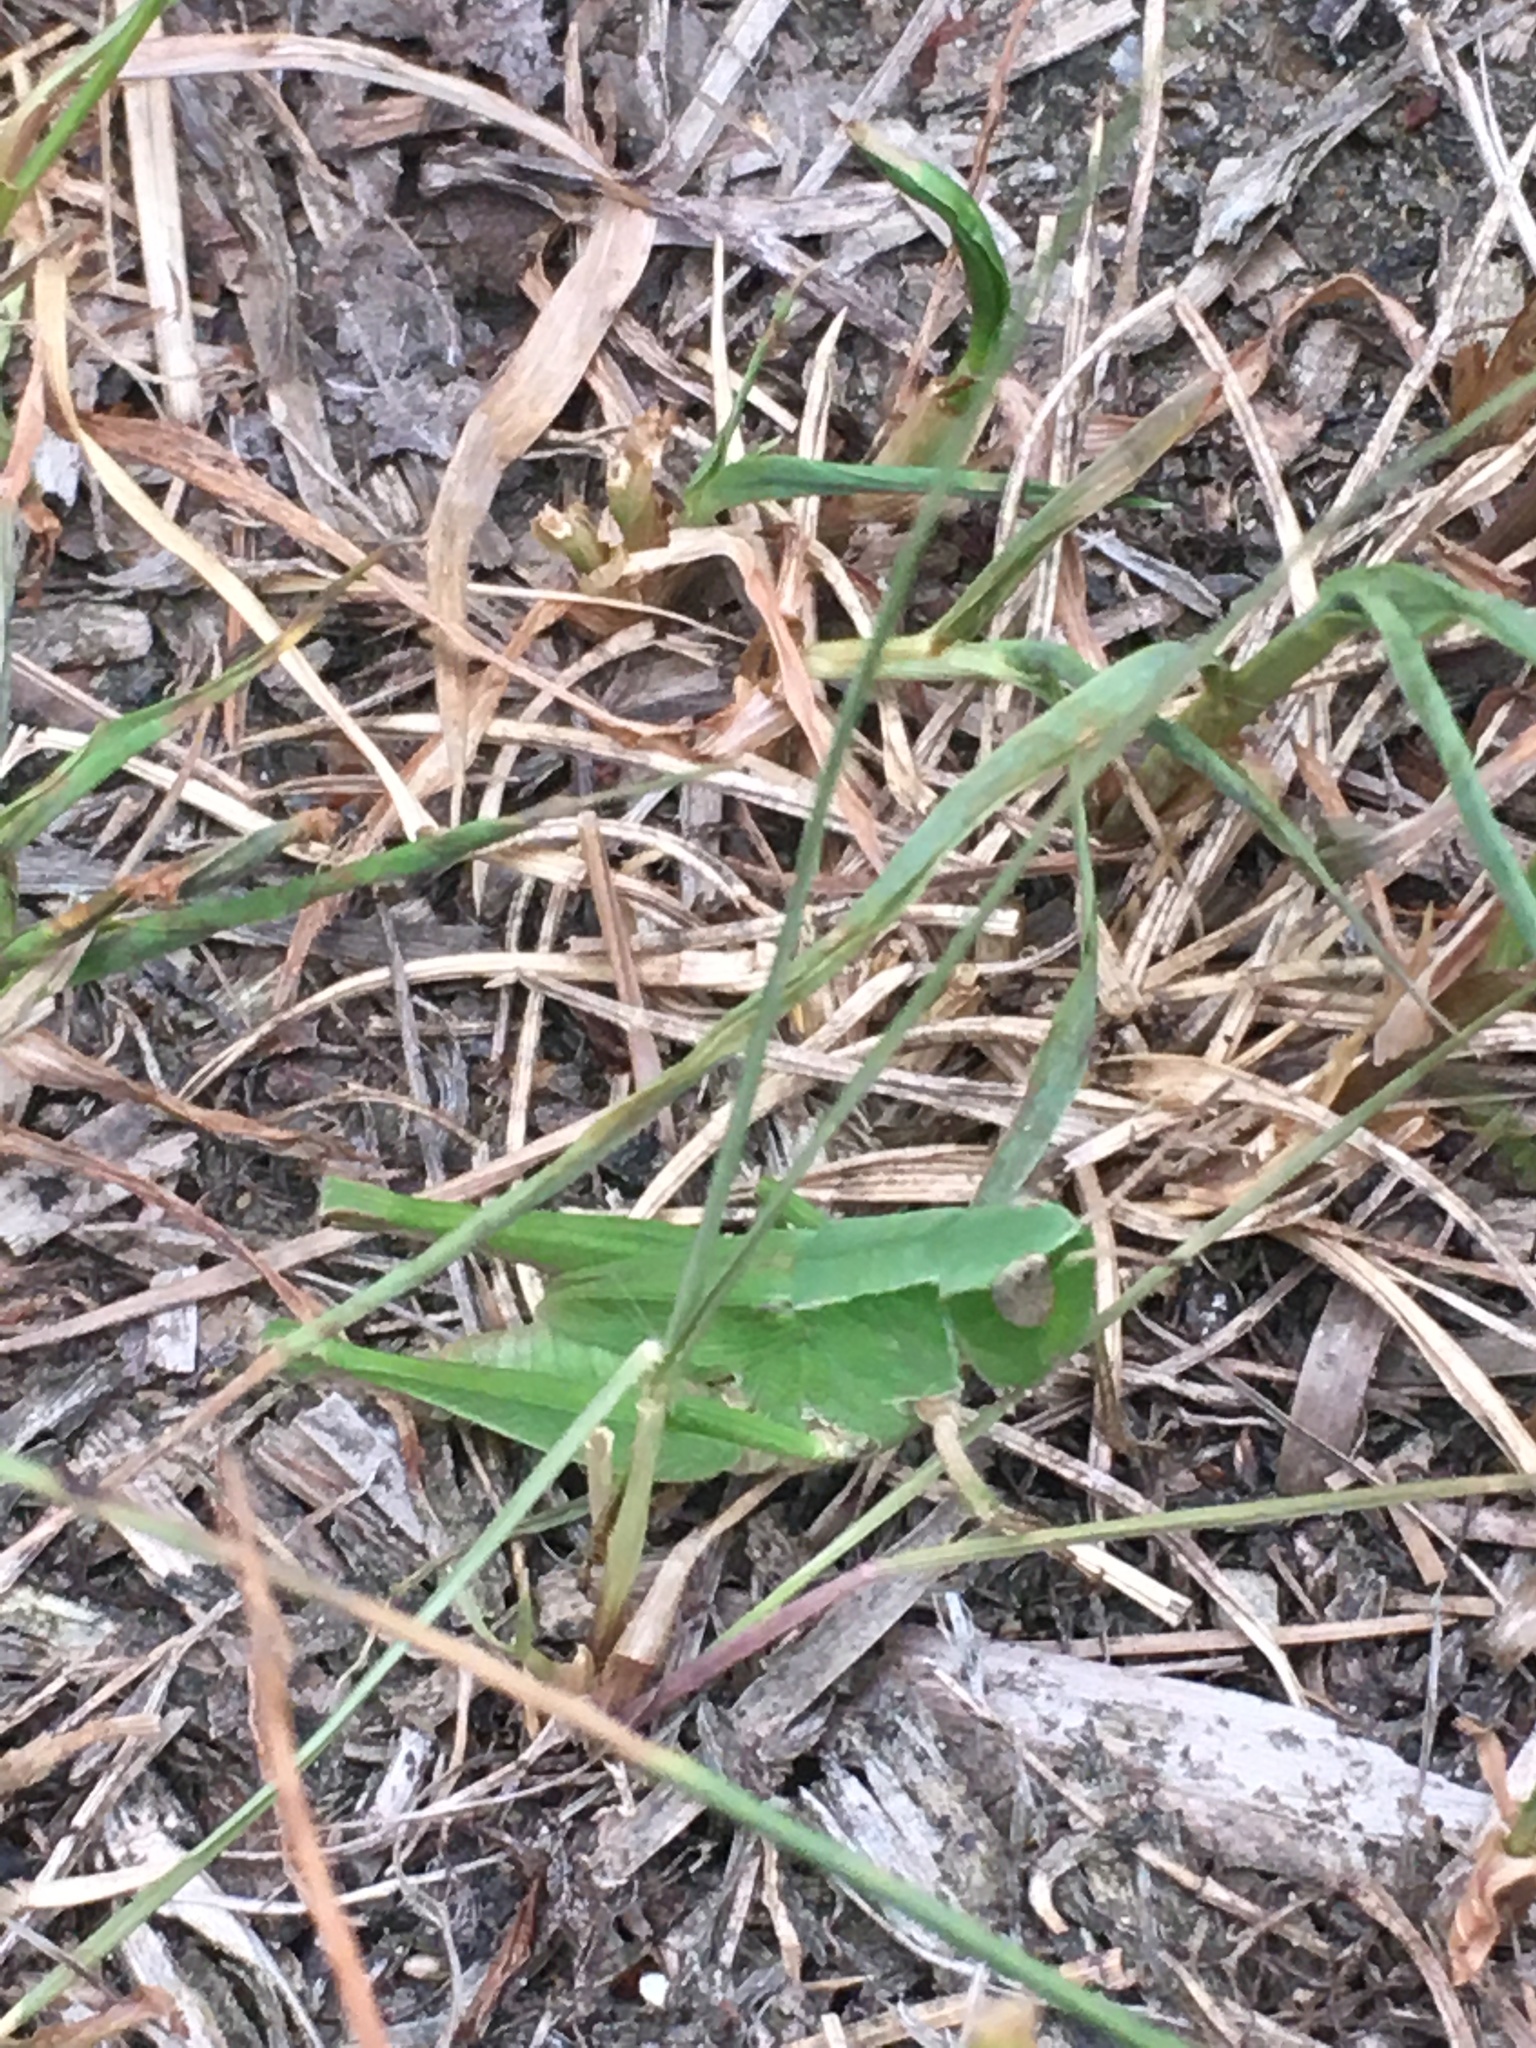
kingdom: Animalia
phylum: Arthropoda
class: Insecta
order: Orthoptera
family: Acrididae
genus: Dichromorpha
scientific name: Dichromorpha viridis
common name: Short-winged green grasshopper
